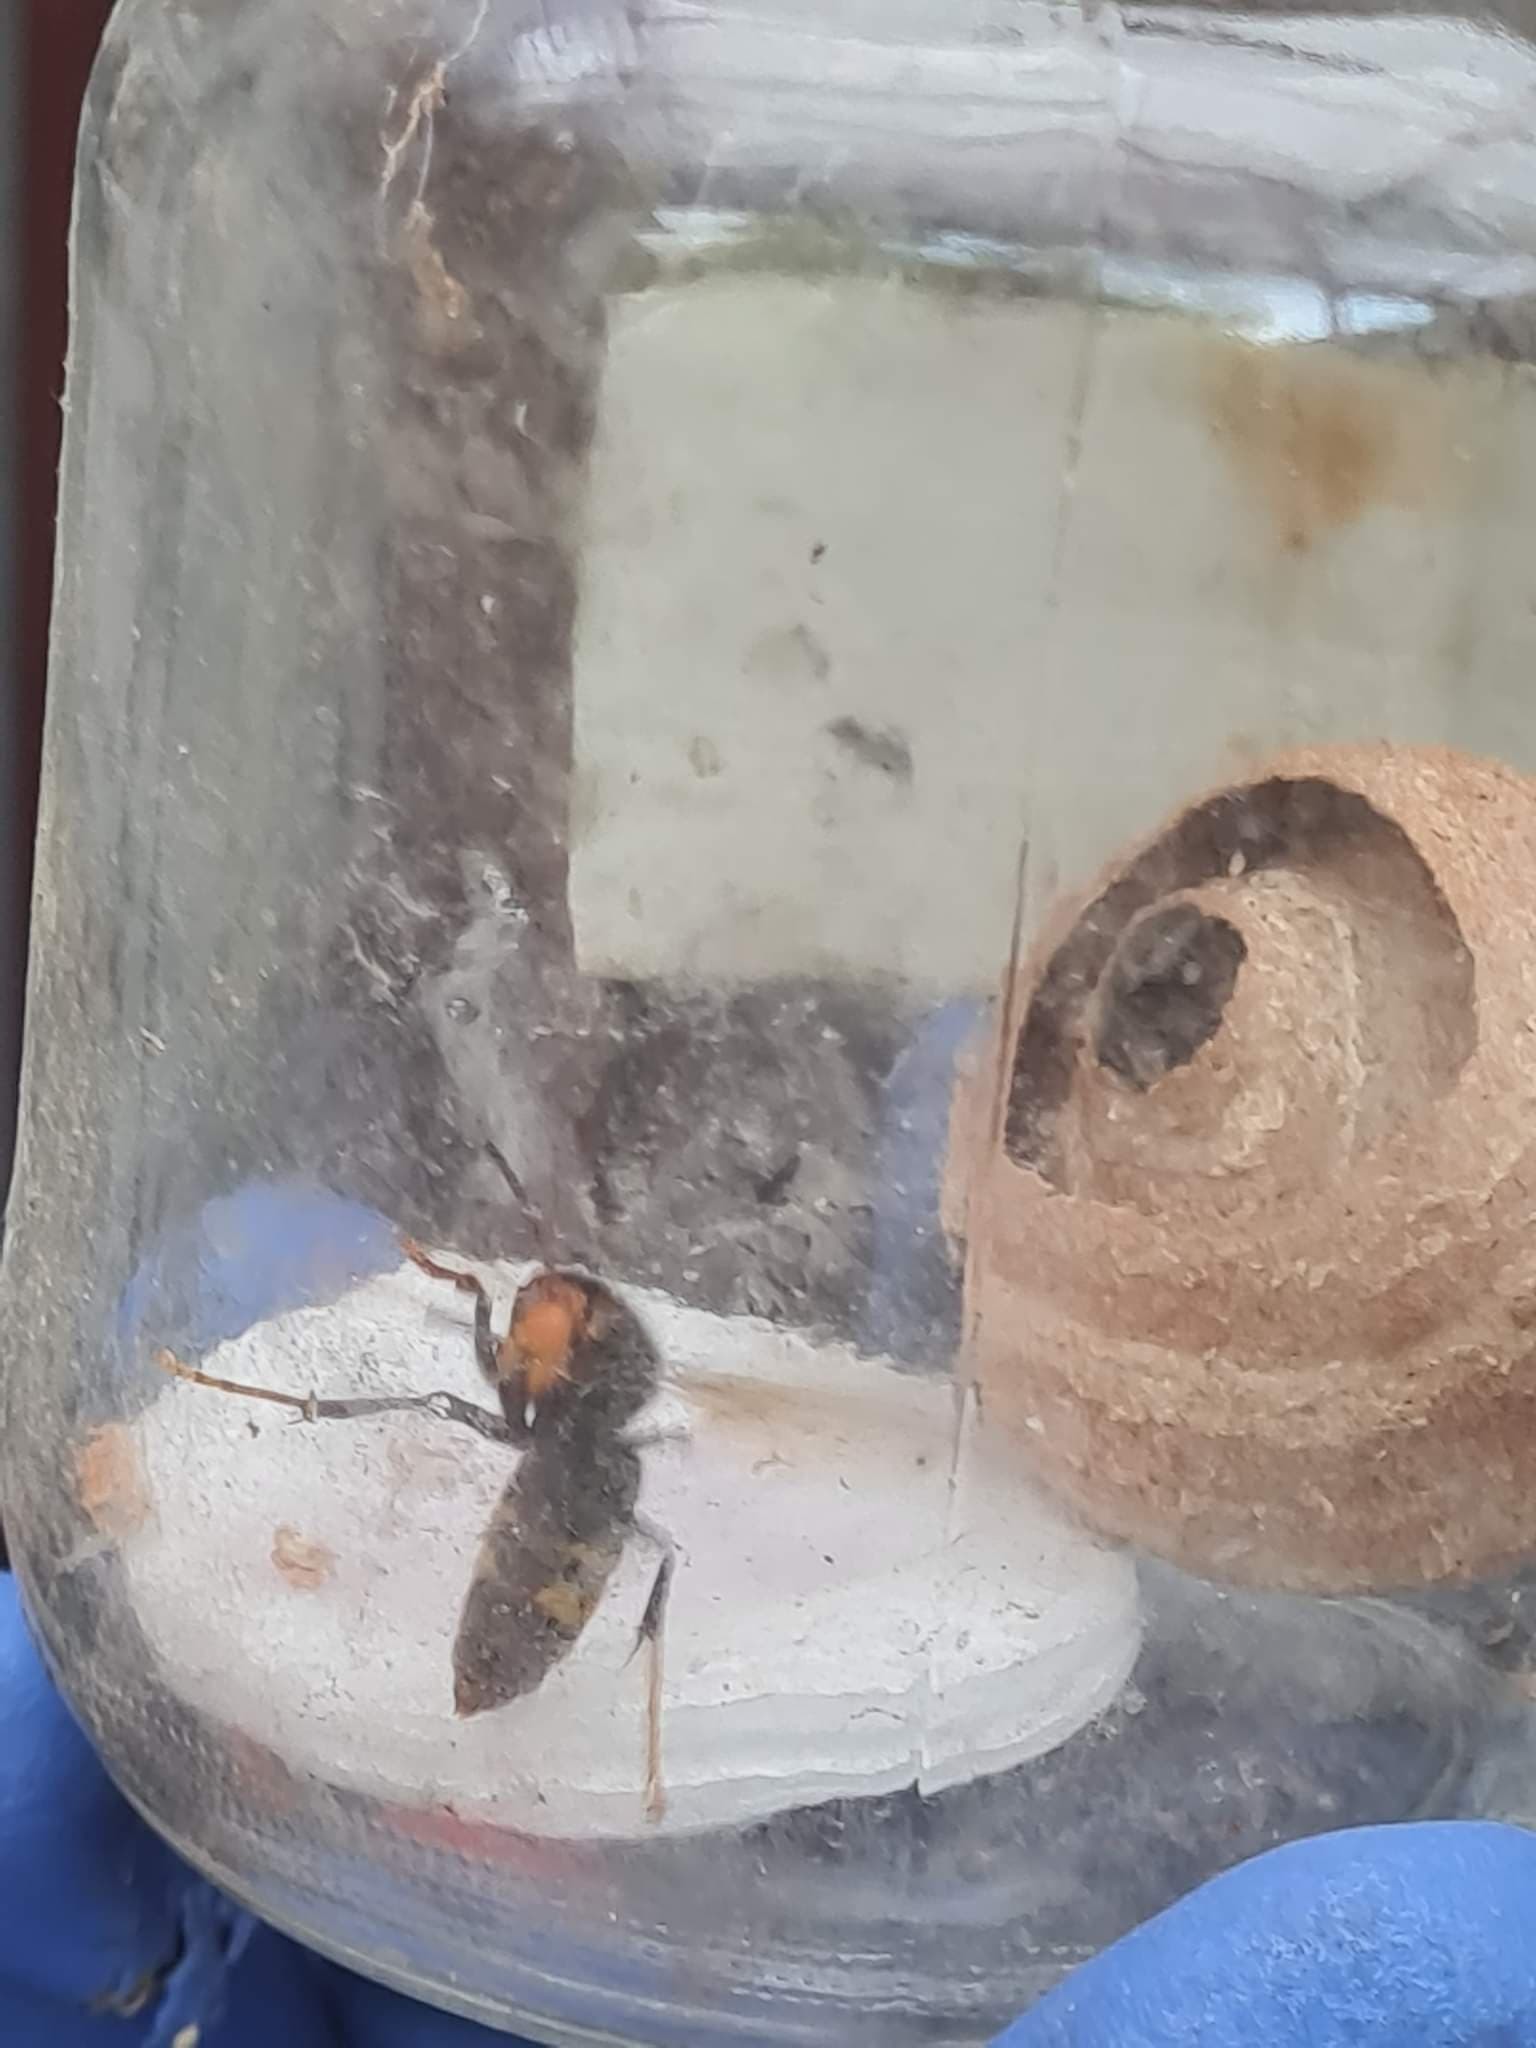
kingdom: Animalia
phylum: Arthropoda
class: Insecta
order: Hymenoptera
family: Vespidae
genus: Vespa
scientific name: Vespa velutina
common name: Asian hornet
